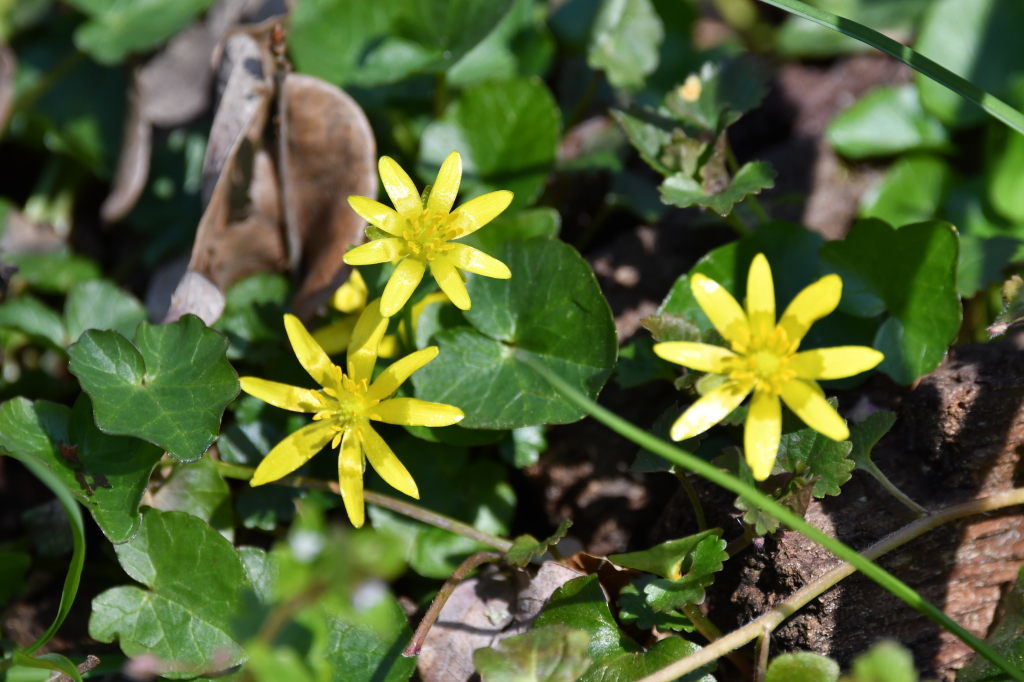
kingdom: Plantae
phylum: Tracheophyta
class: Magnoliopsida
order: Ranunculales
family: Ranunculaceae
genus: Ficaria
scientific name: Ficaria verna
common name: Lesser celandine
